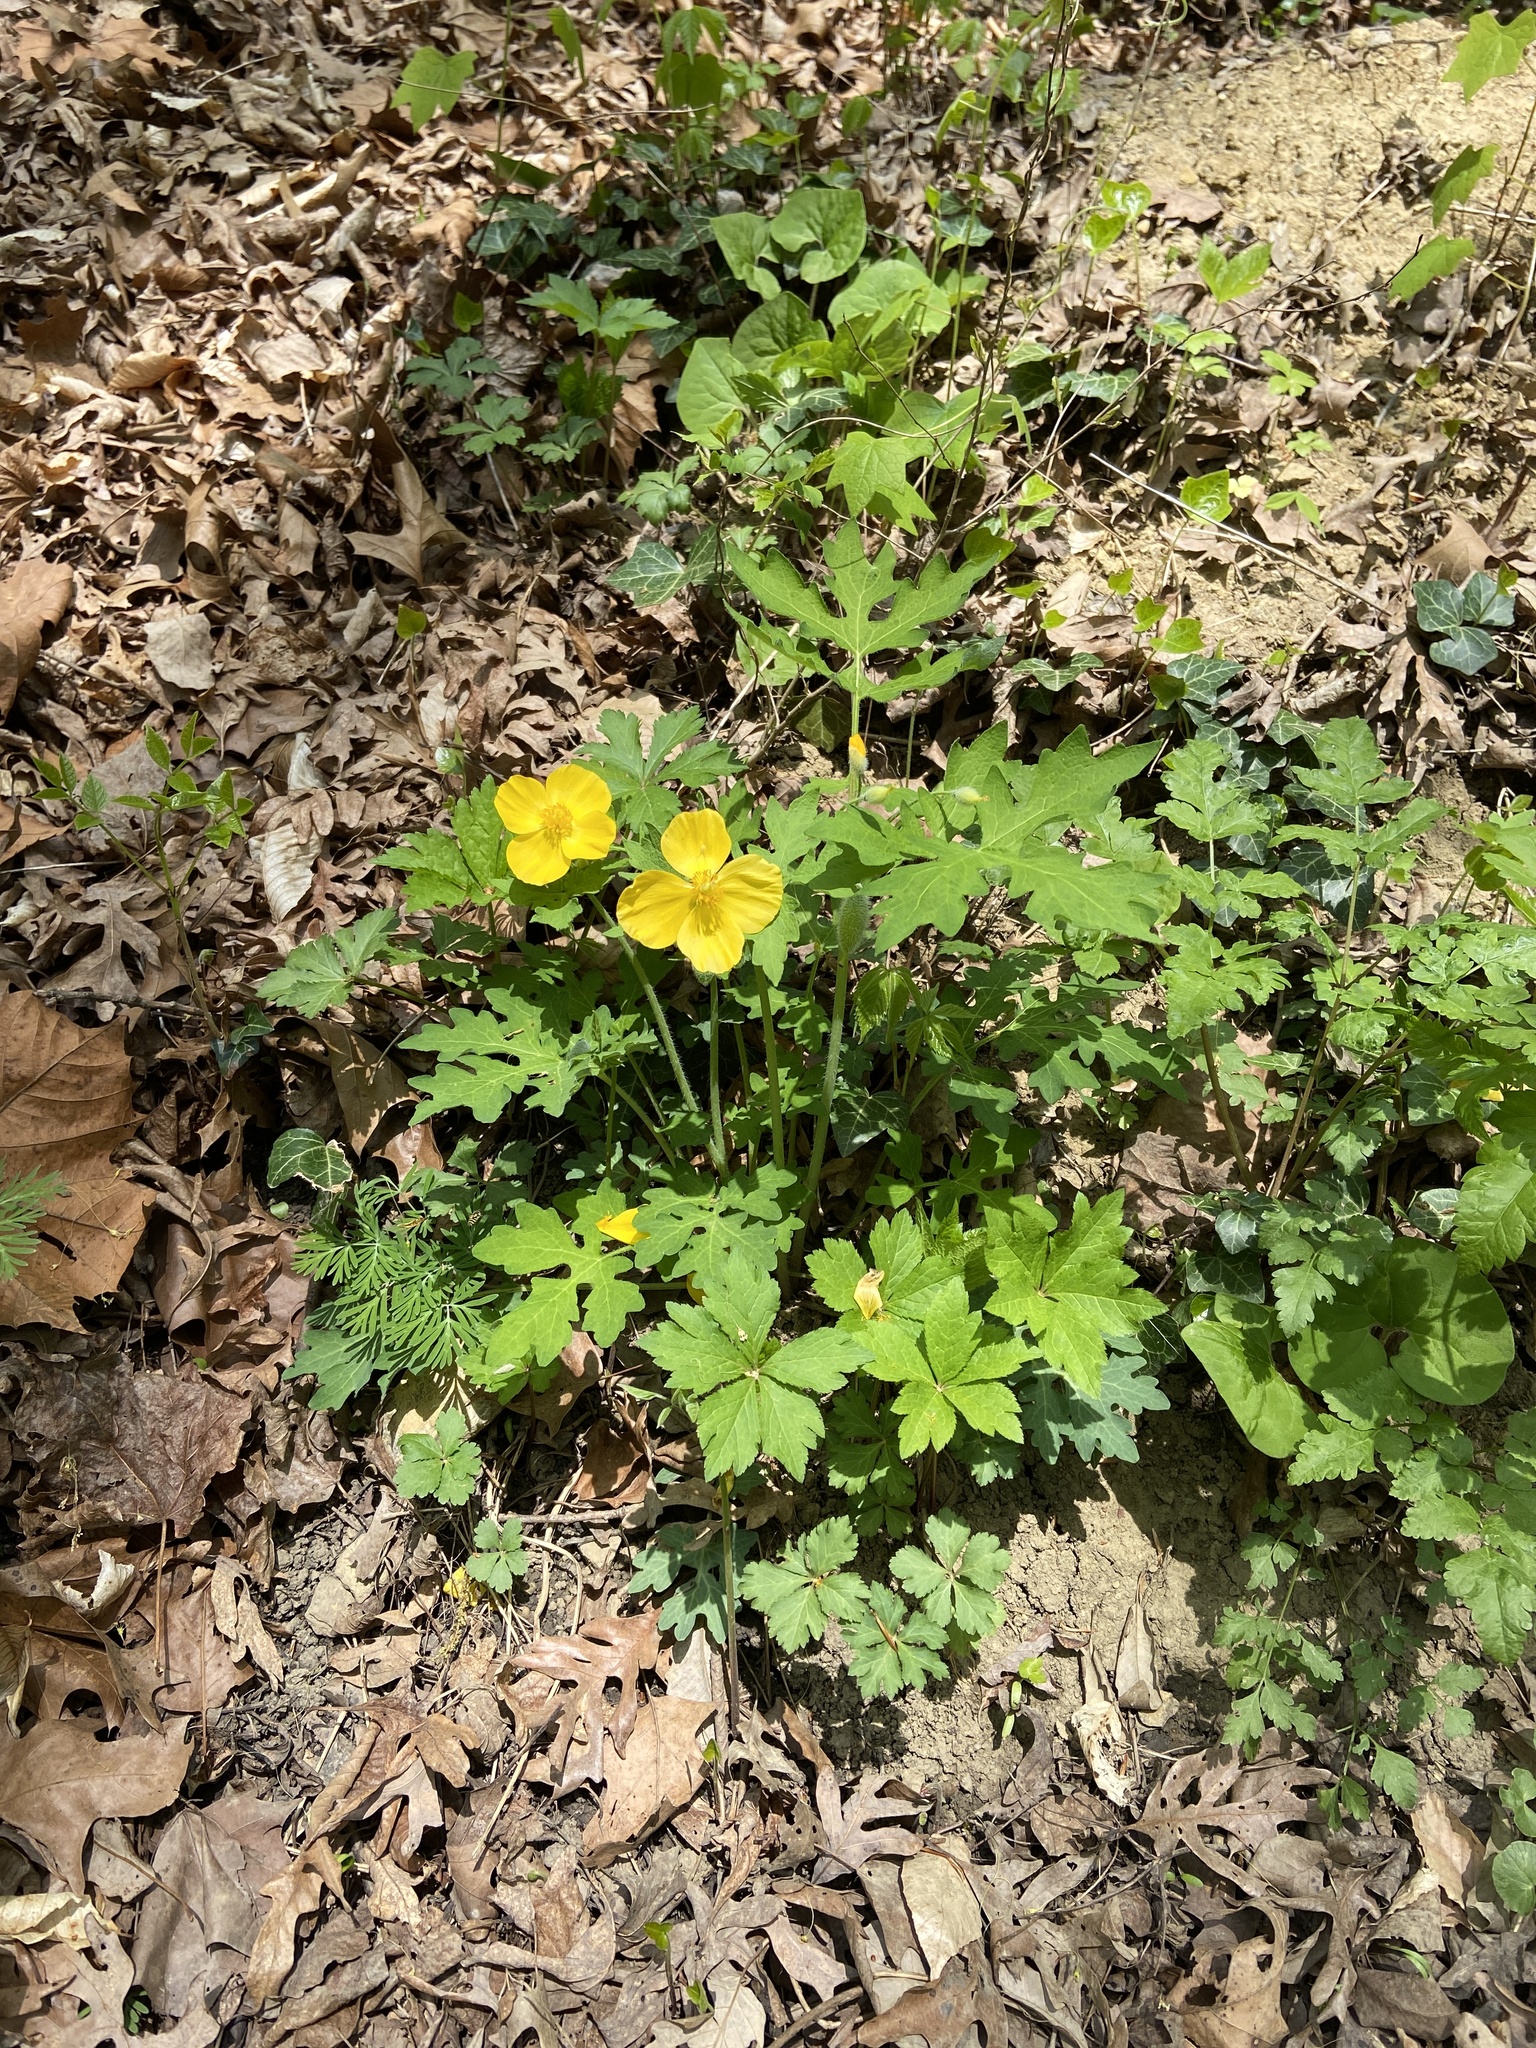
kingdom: Plantae
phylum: Tracheophyta
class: Magnoliopsida
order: Ranunculales
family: Papaveraceae
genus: Stylophorum
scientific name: Stylophorum diphyllum
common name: Celandine poppy
